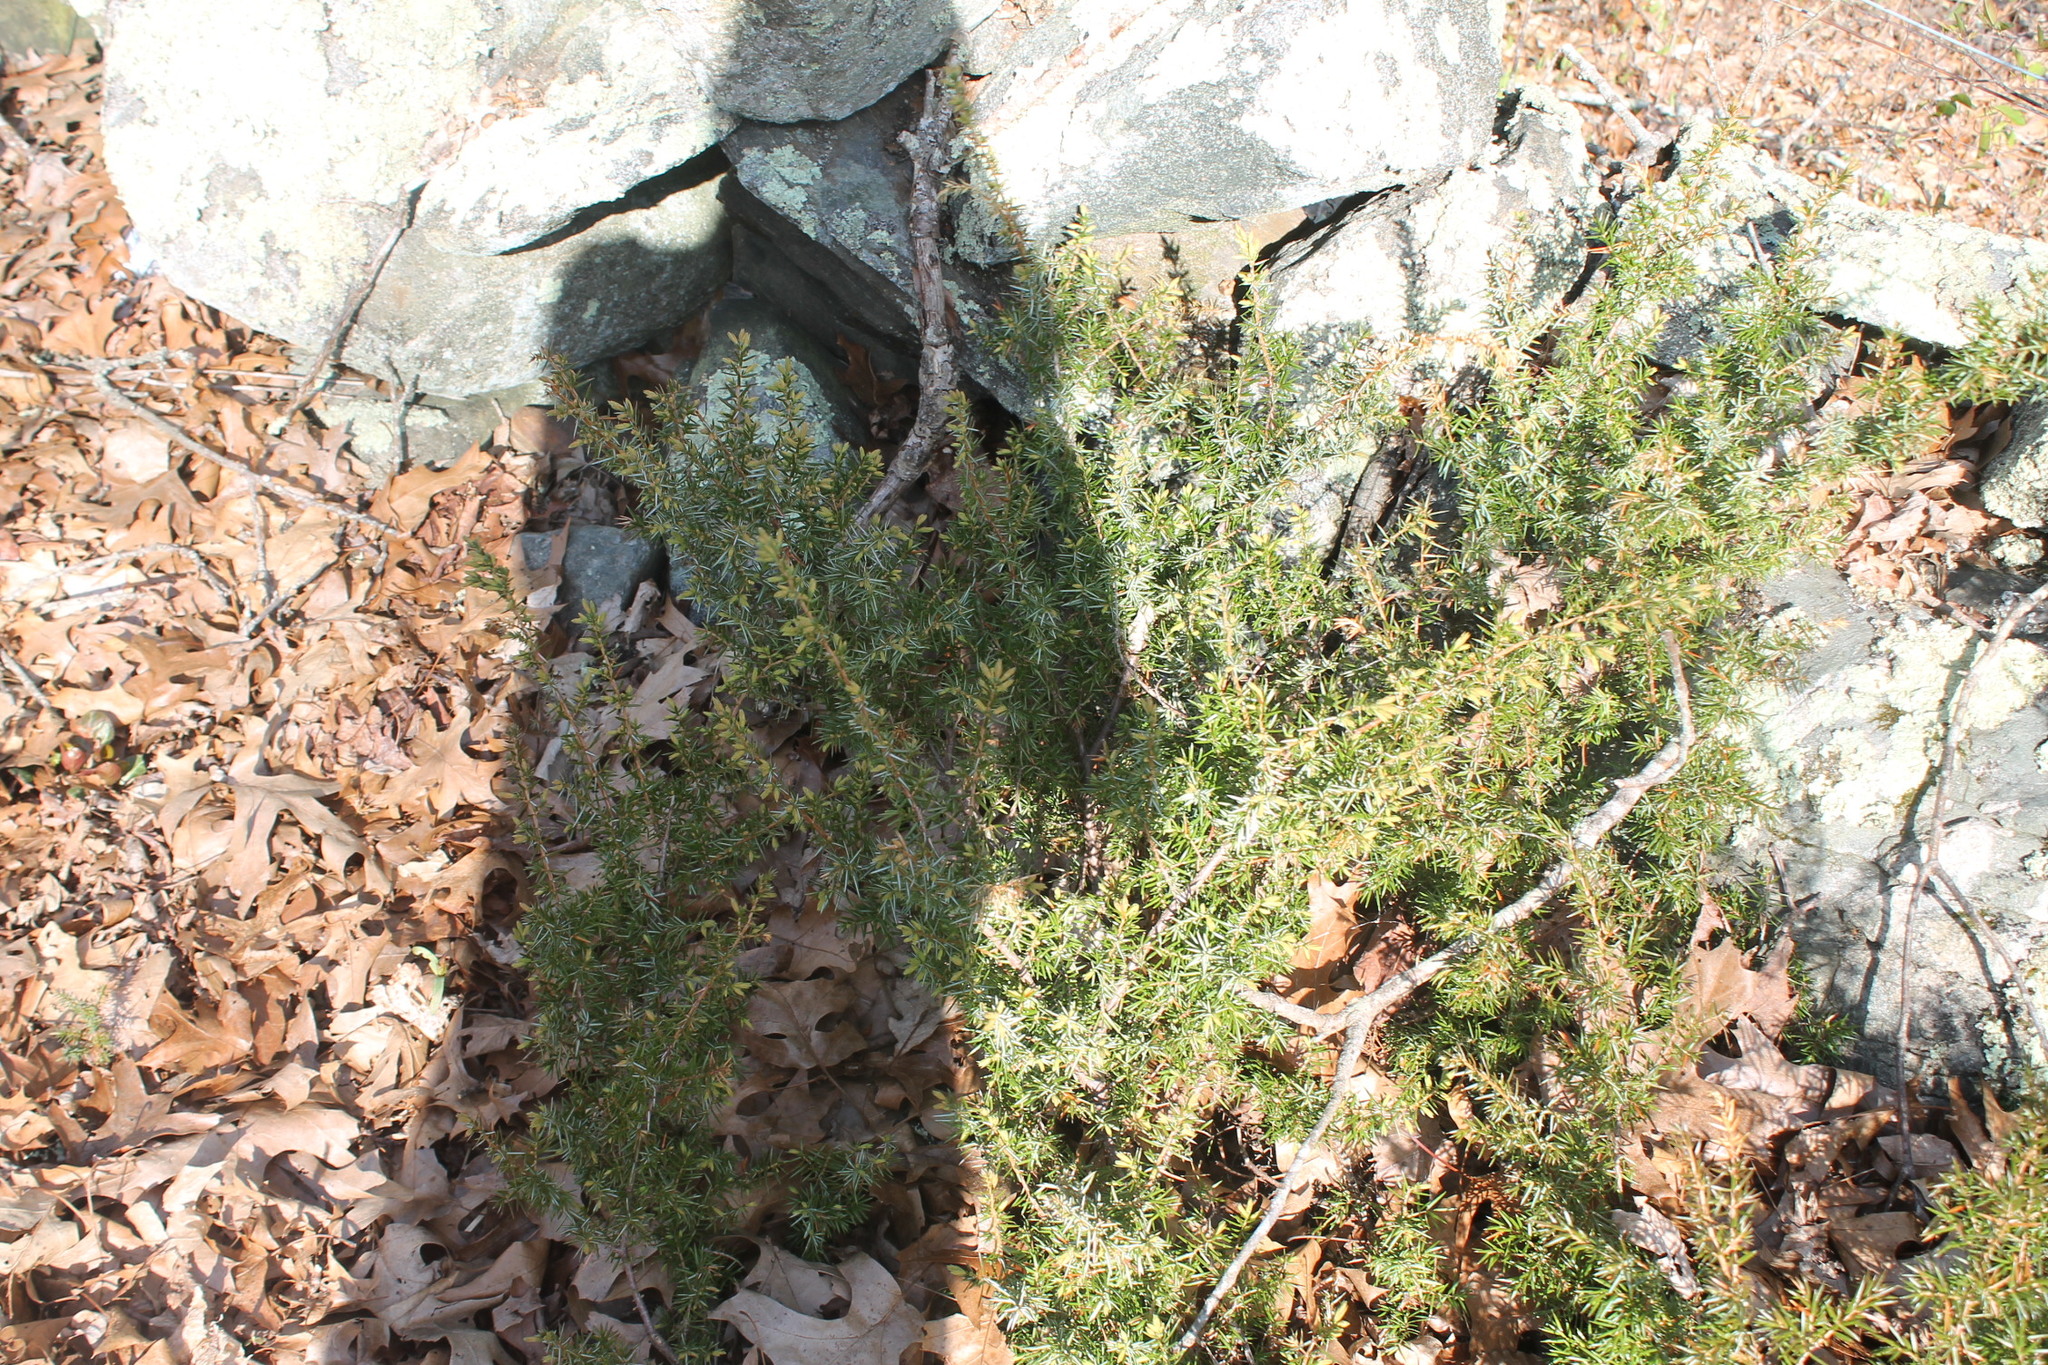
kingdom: Plantae
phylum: Tracheophyta
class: Pinopsida
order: Pinales
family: Cupressaceae
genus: Juniperus
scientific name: Juniperus communis
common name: Common juniper
